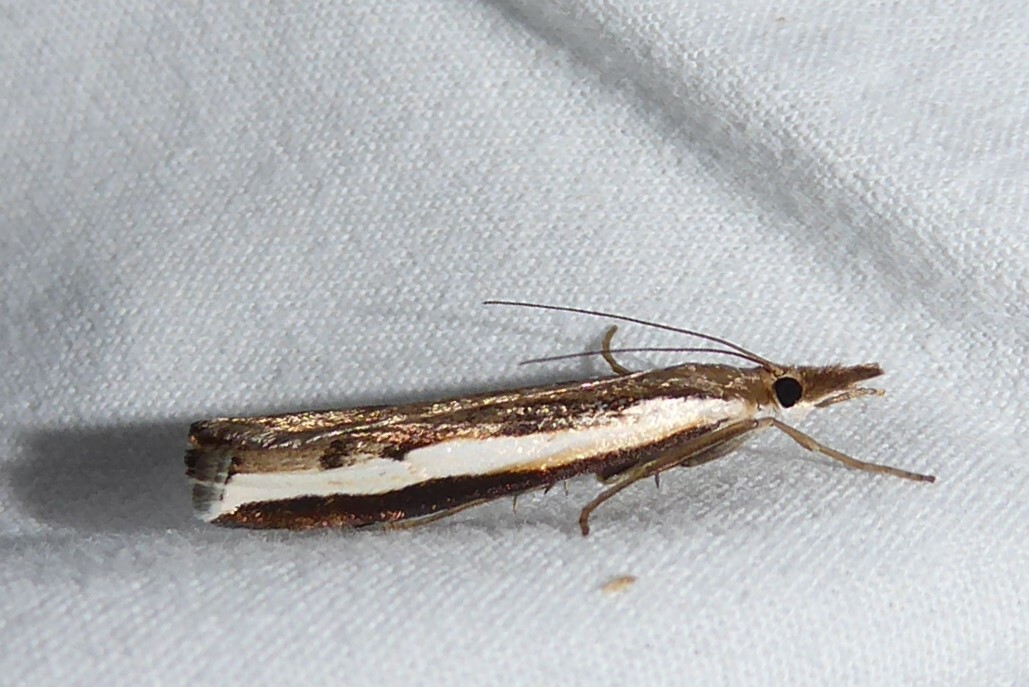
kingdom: Animalia
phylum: Arthropoda
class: Insecta
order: Lepidoptera
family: Crambidae
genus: Orocrambus
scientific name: Orocrambus flexuosellus
